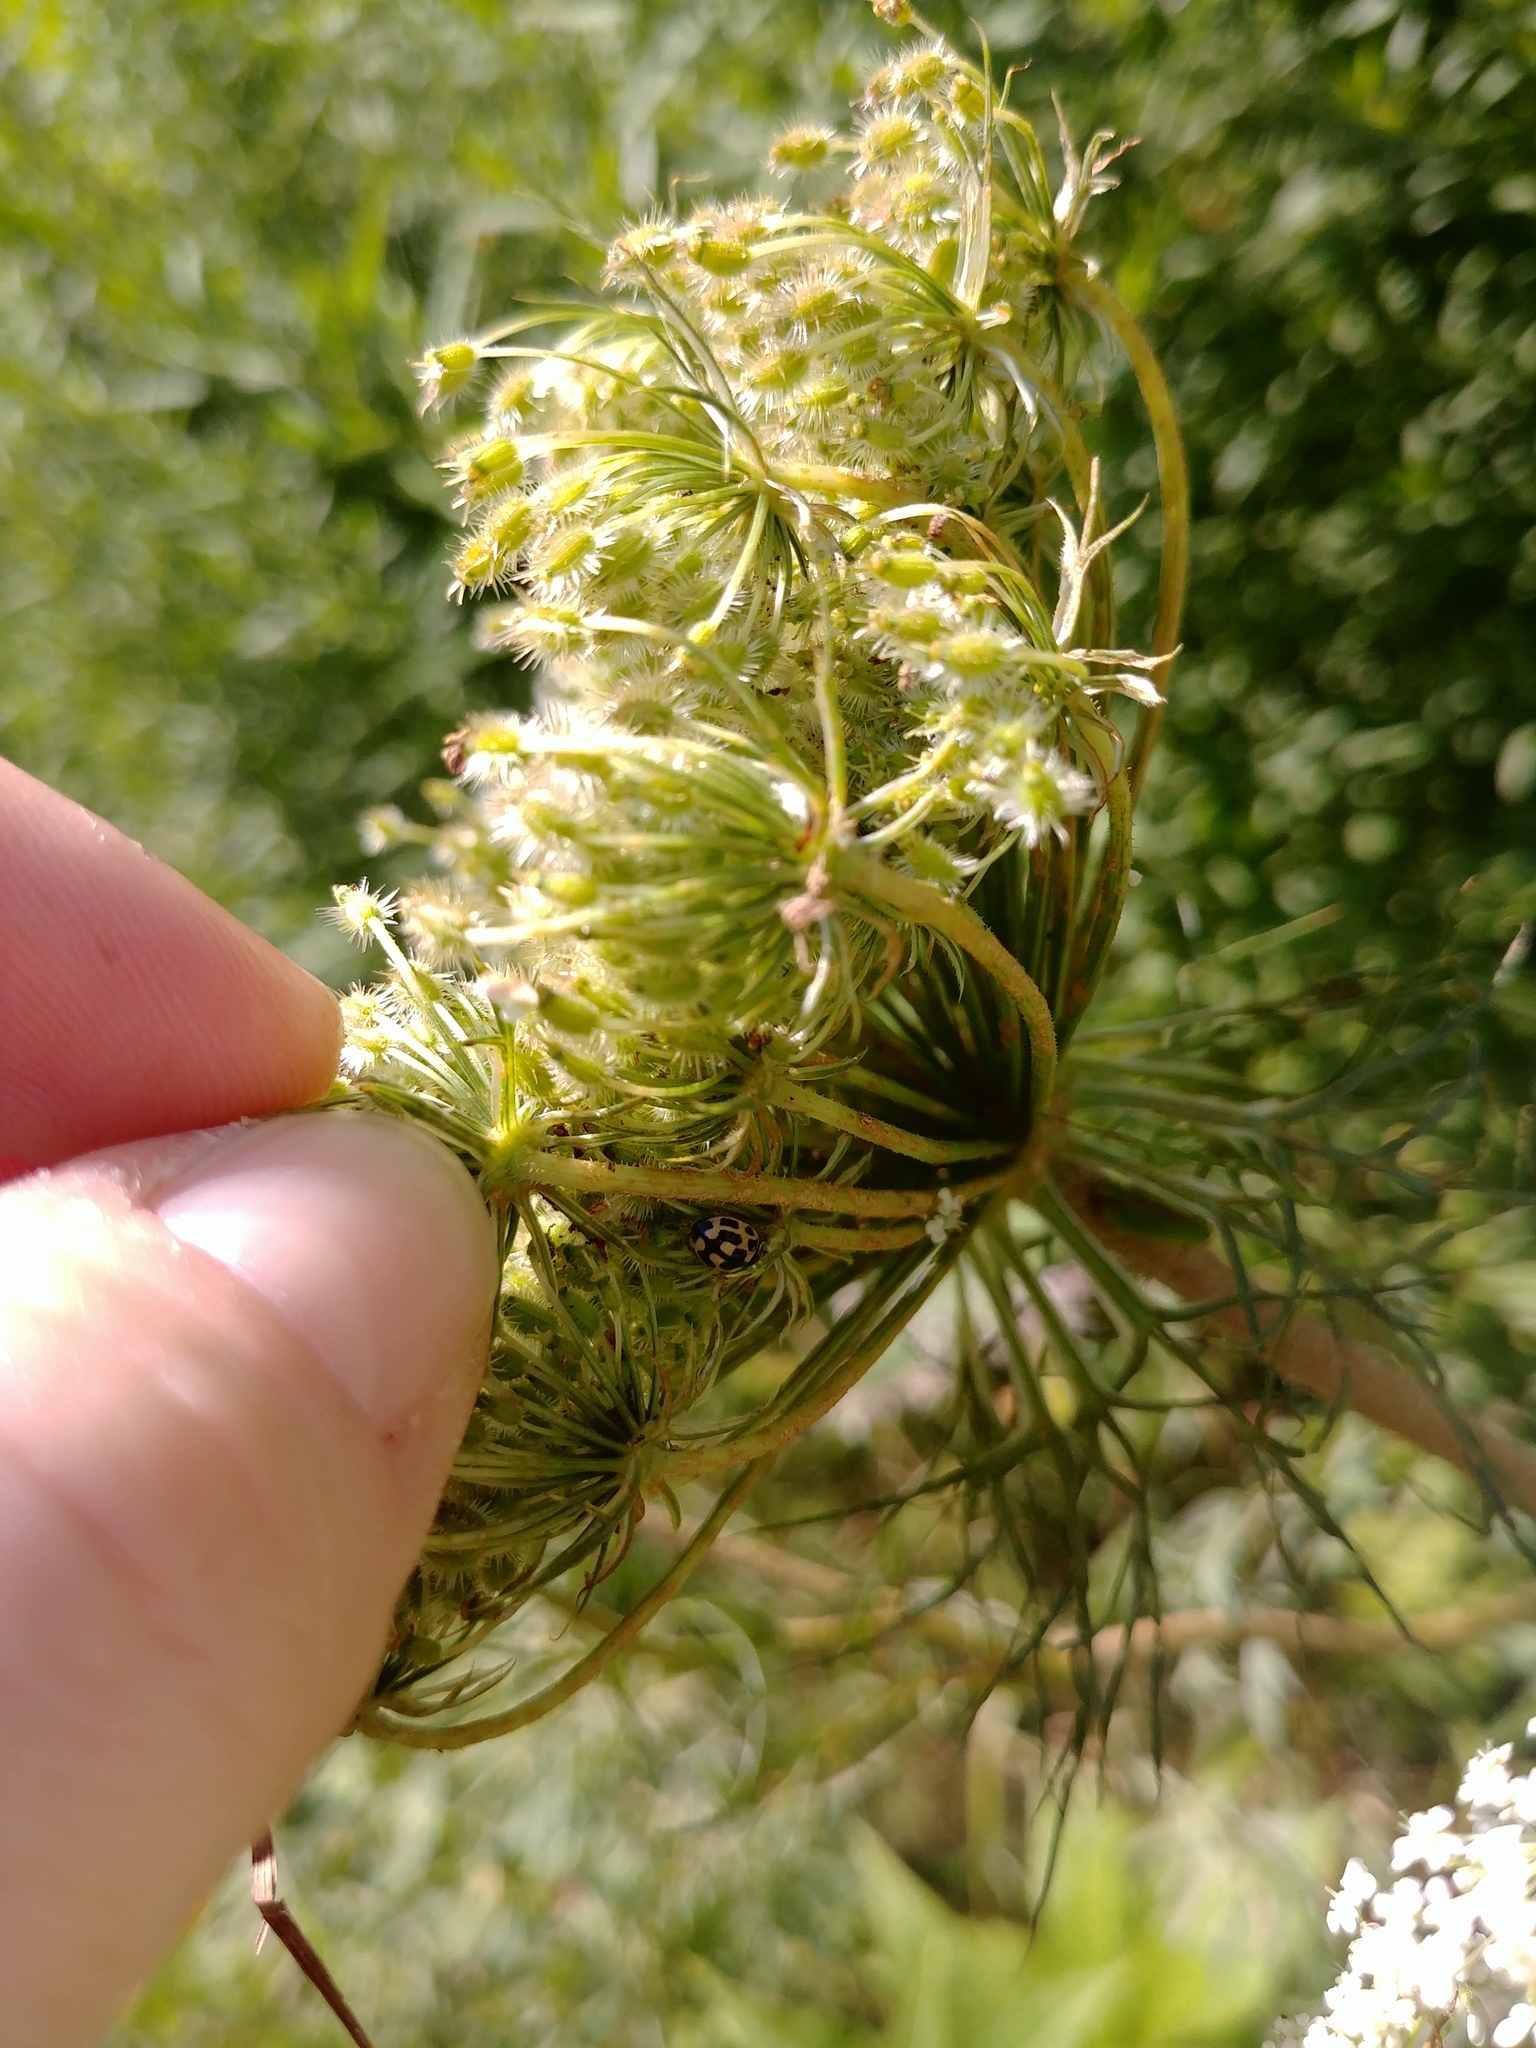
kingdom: Animalia
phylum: Arthropoda
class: Insecta
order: Coleoptera
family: Coccinellidae
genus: Propylaea
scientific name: Propylaea quatuordecimpunctata
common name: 14-spotted ladybird beetle
